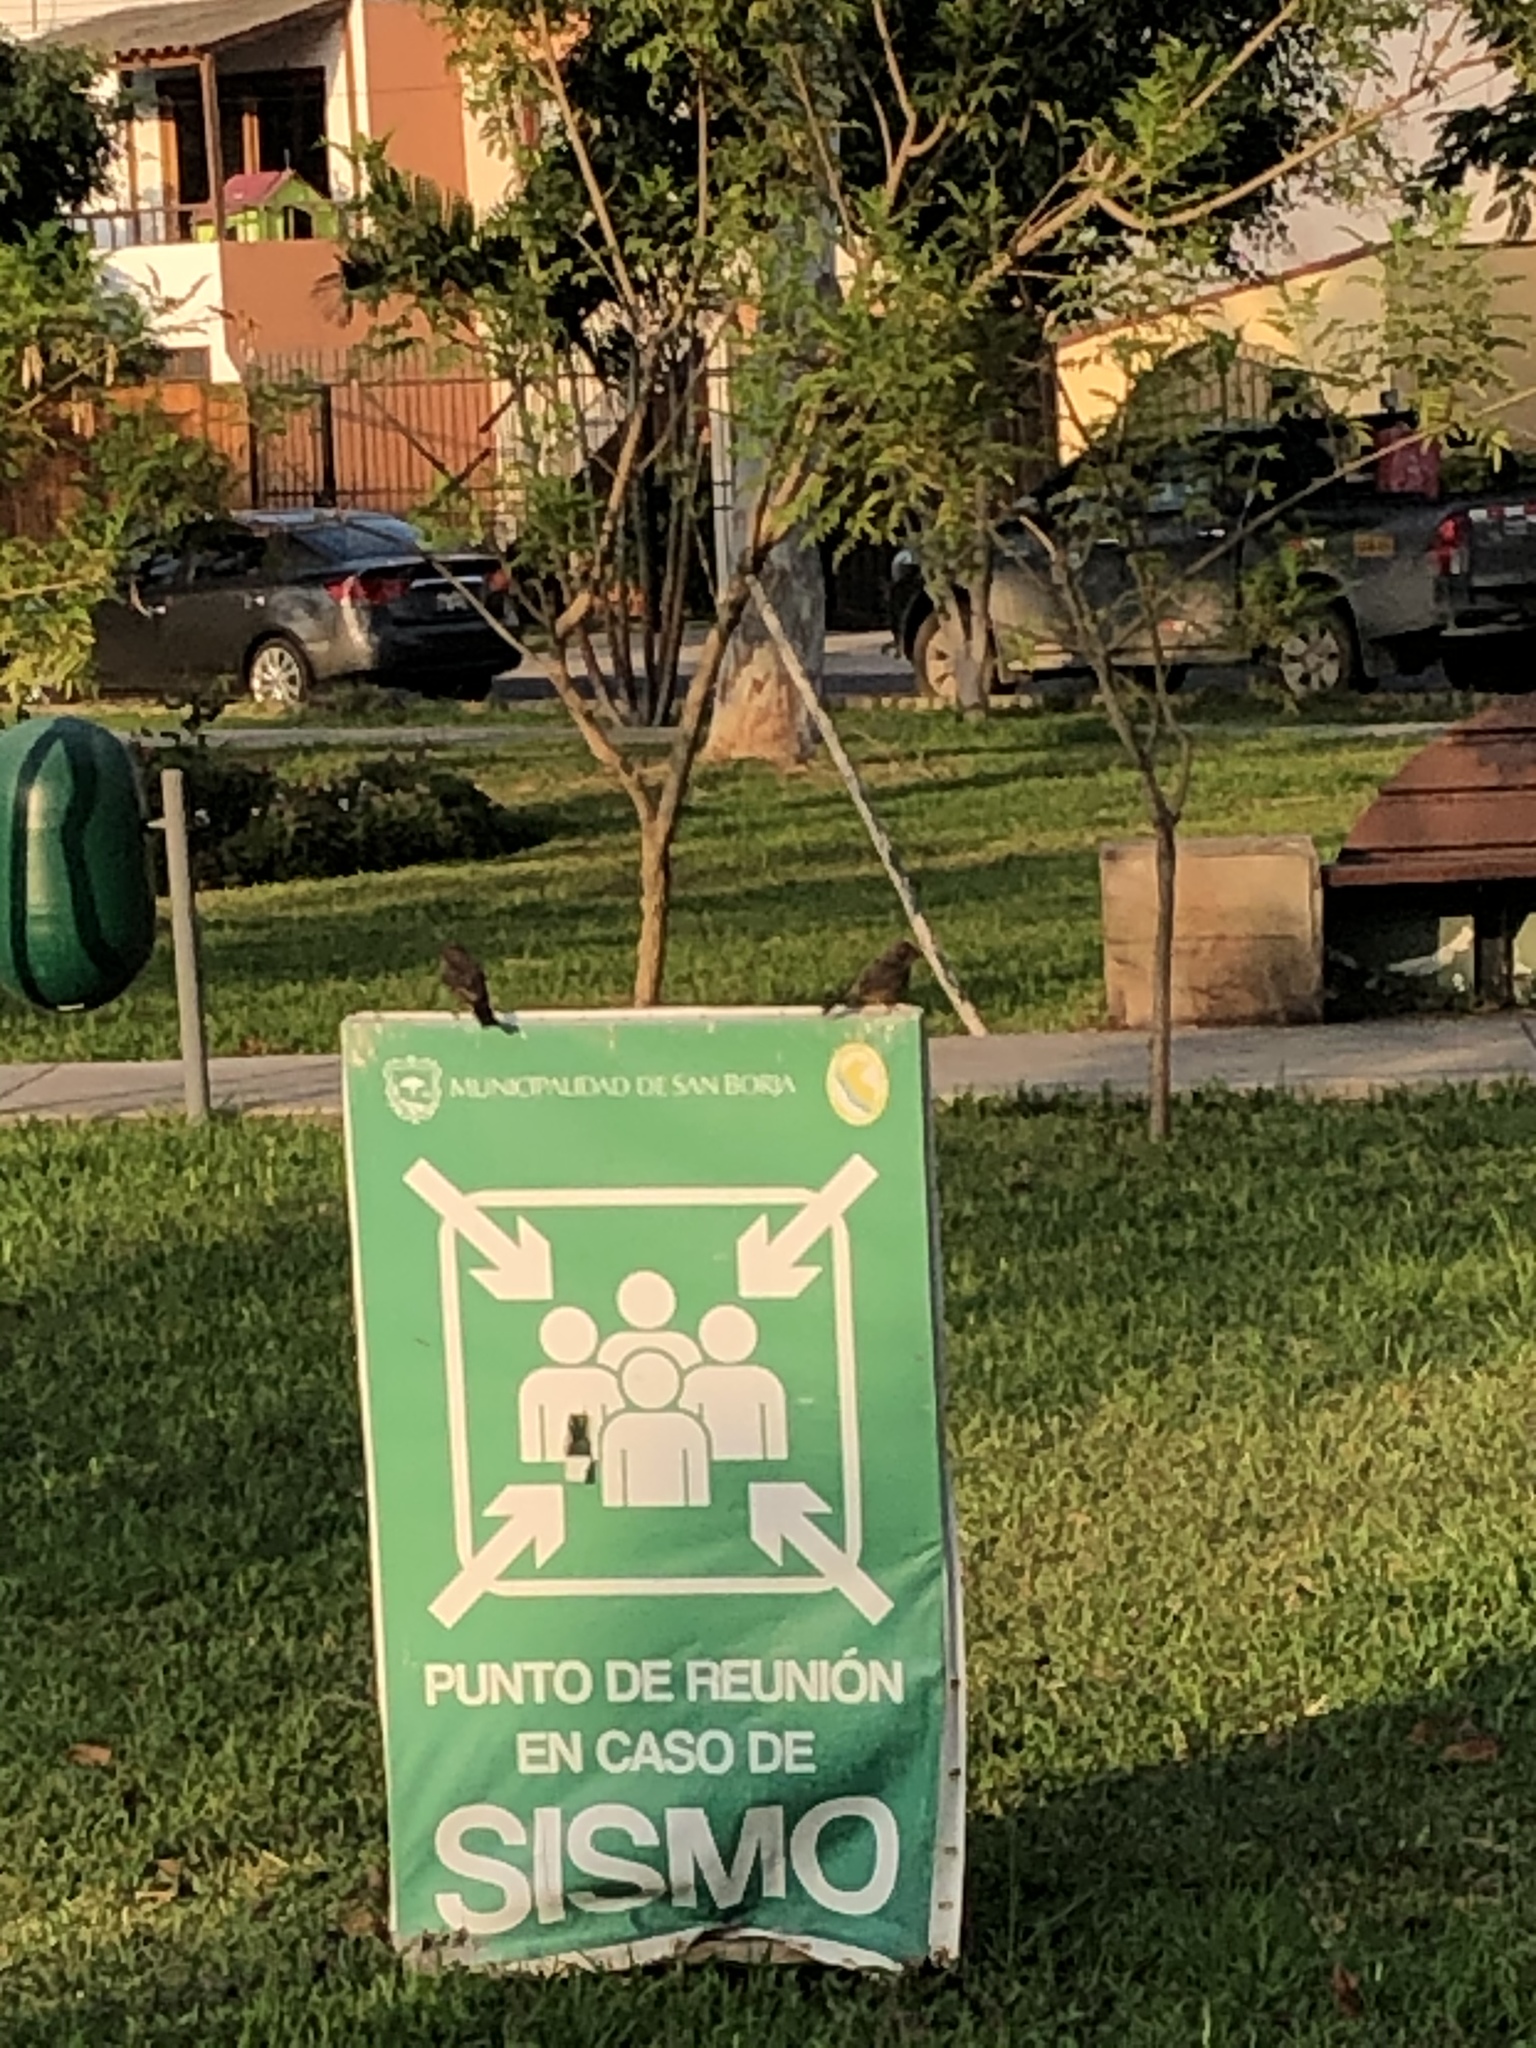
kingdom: Animalia
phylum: Chordata
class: Aves
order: Passeriformes
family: Tyrannidae
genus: Pyrocephalus
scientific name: Pyrocephalus rubinus
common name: Vermilion flycatcher
